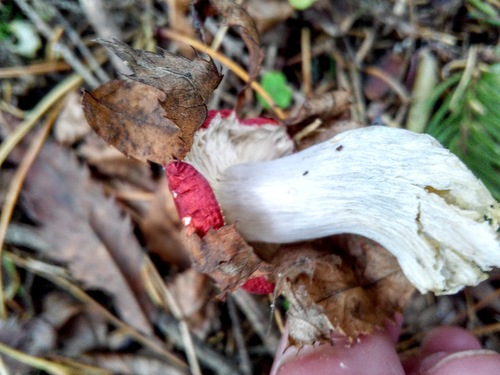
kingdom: Fungi
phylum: Basidiomycota
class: Agaricomycetes
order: Russulales
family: Russulaceae
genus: Russula
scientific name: Russula
